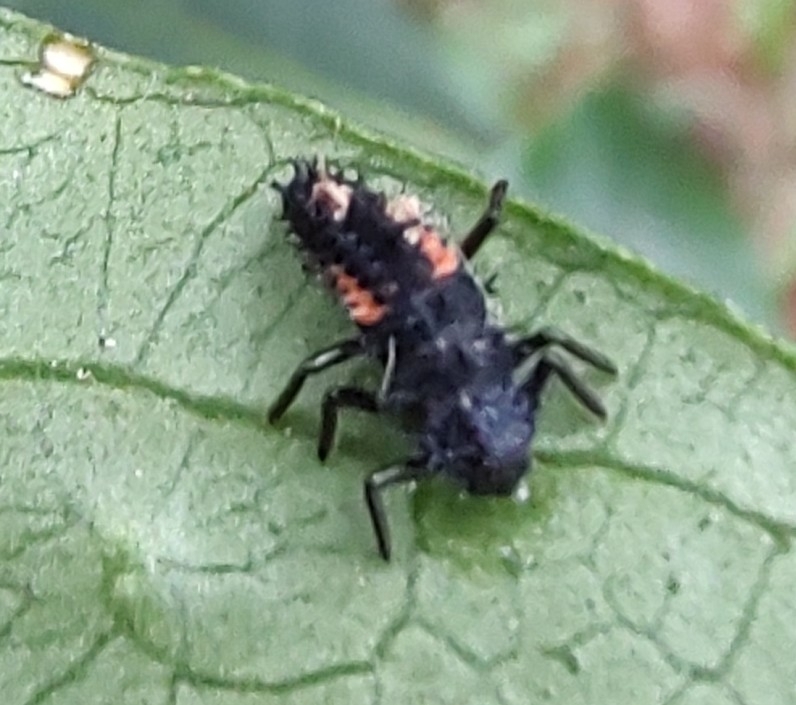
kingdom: Animalia
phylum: Arthropoda
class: Insecta
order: Coleoptera
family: Coccinellidae
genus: Harmonia
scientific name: Harmonia axyridis
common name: Harlequin ladybird
